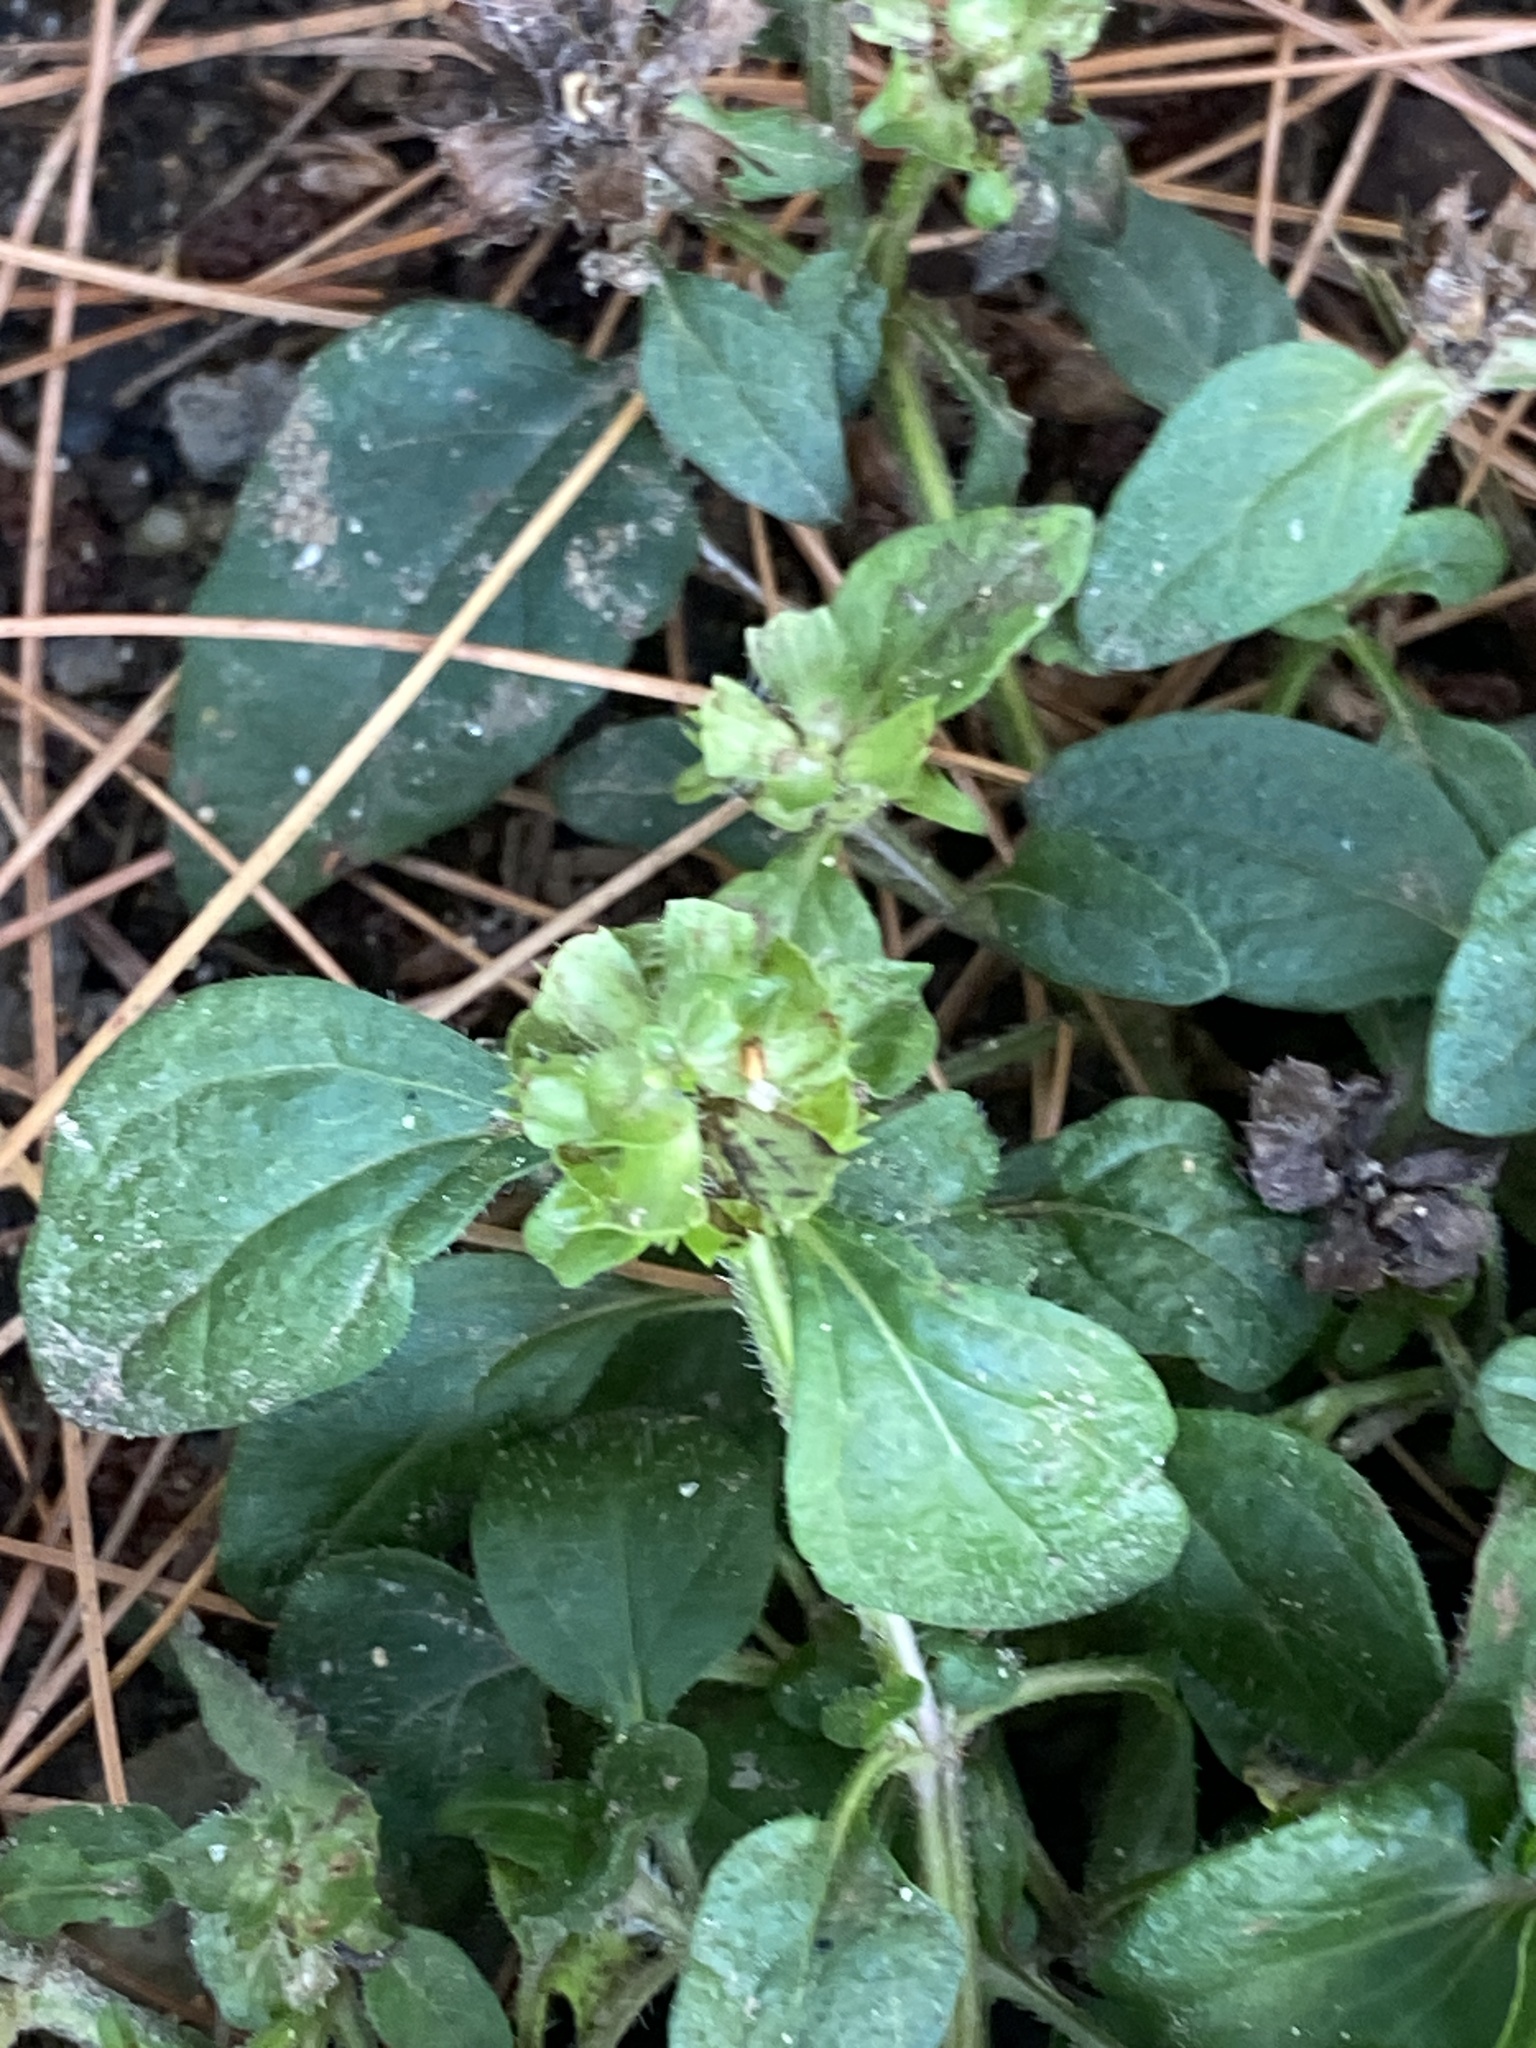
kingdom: Plantae
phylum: Tracheophyta
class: Magnoliopsida
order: Lamiales
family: Lamiaceae
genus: Prunella
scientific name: Prunella vulgaris
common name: Heal-all
